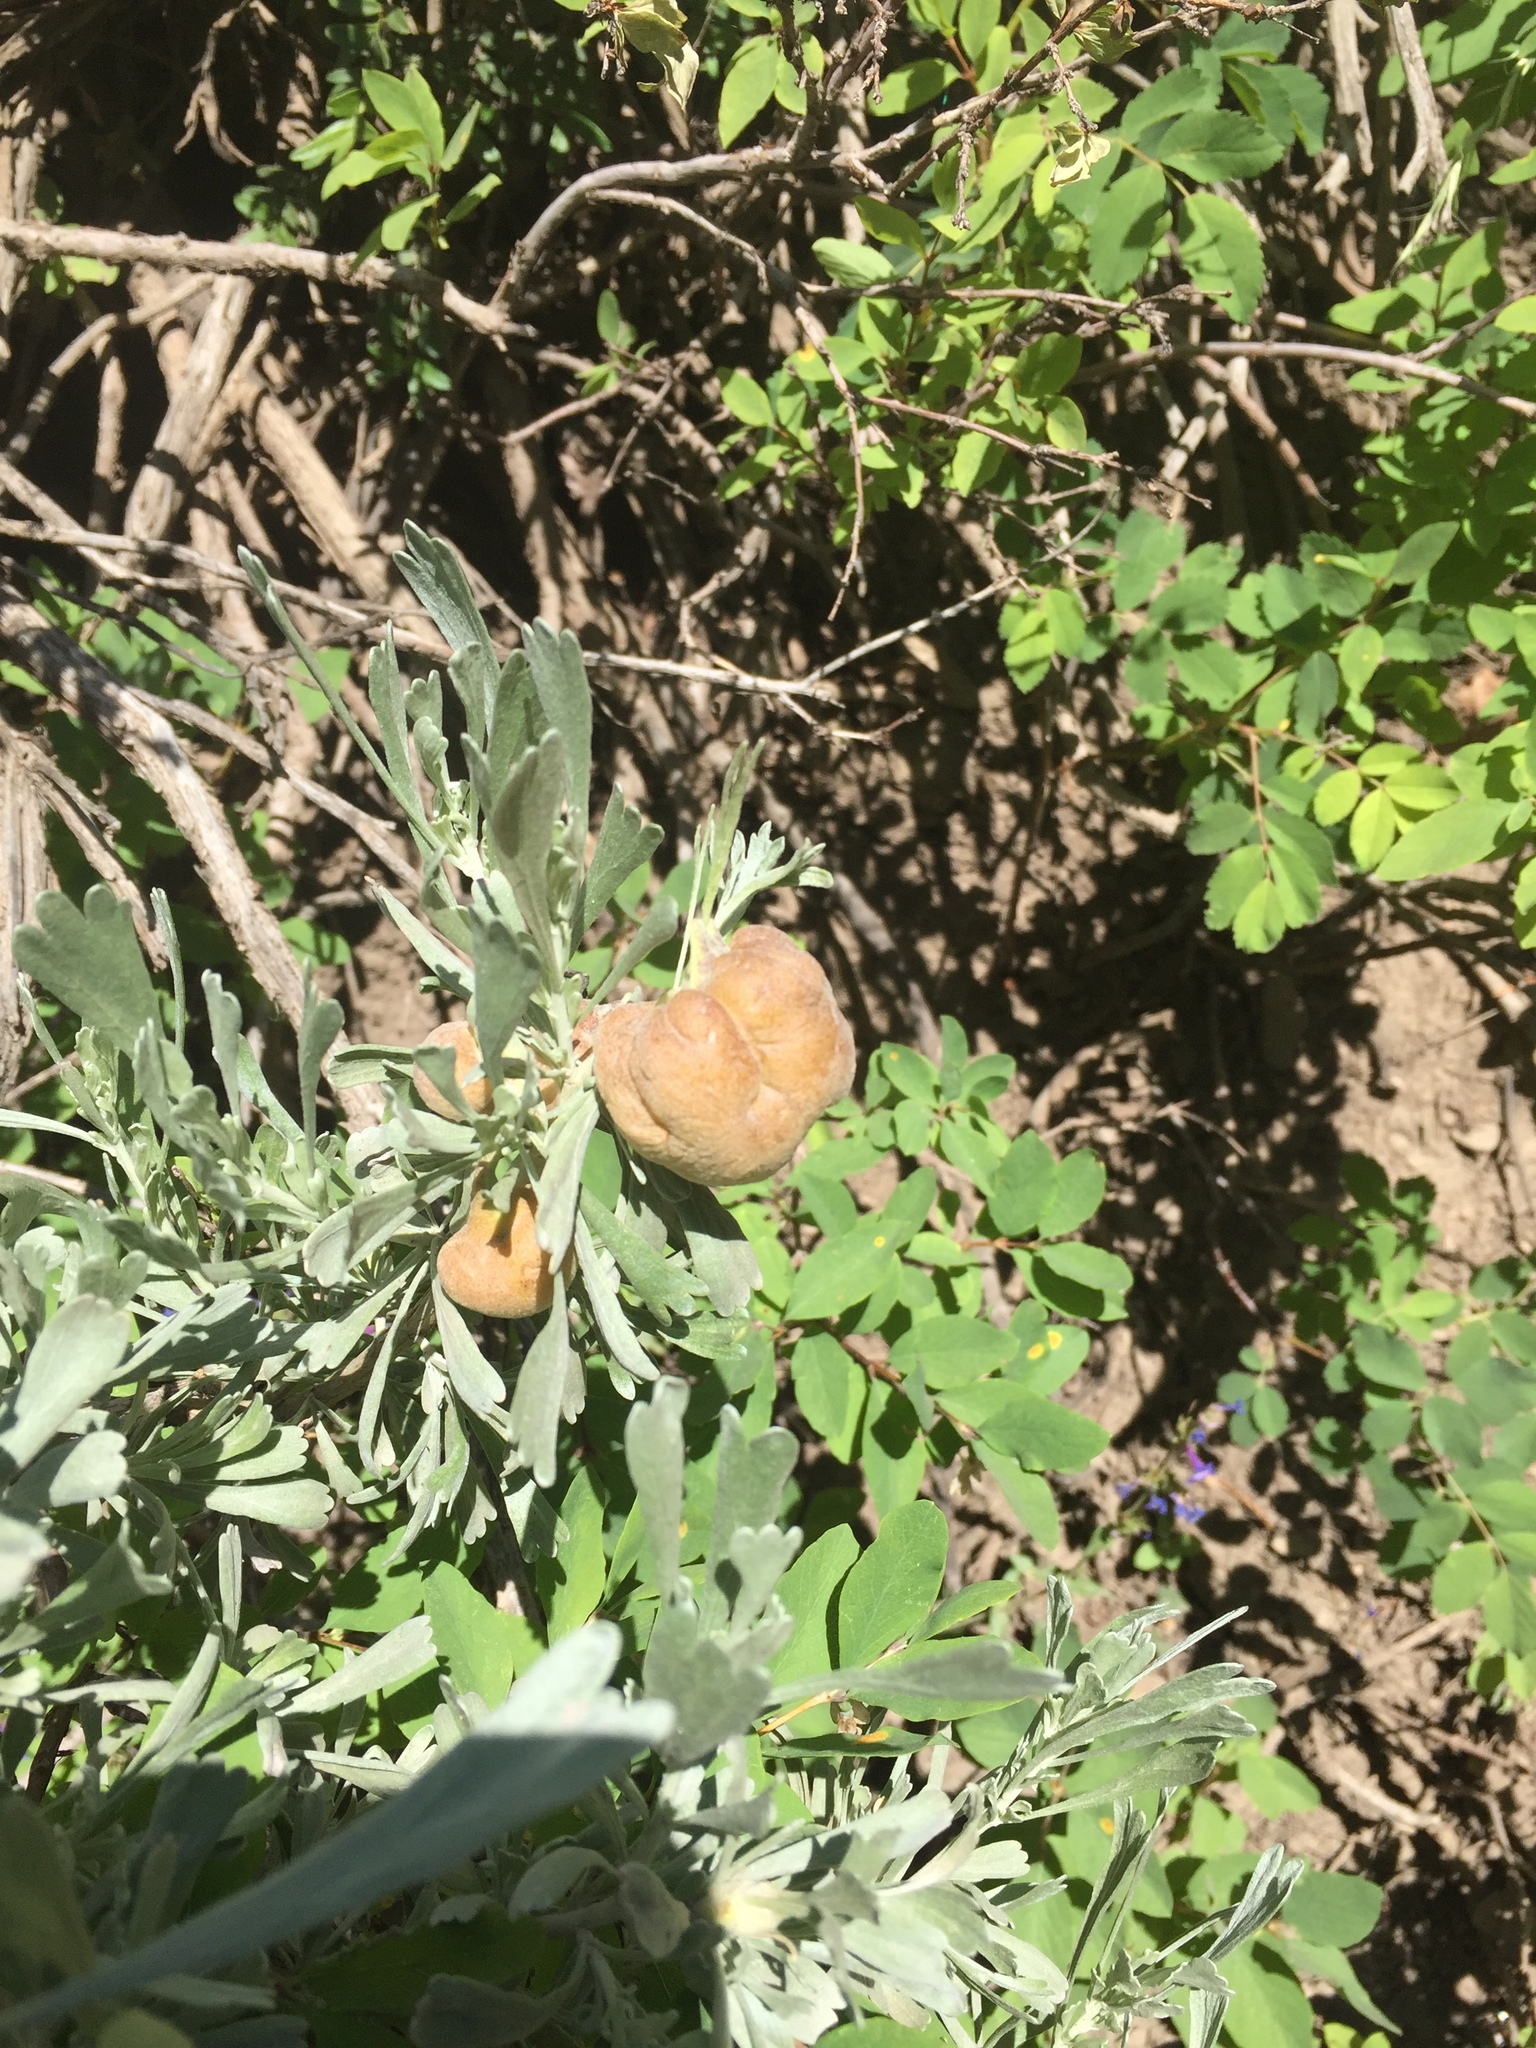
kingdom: Animalia
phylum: Arthropoda
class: Insecta
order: Diptera
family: Cecidomyiidae
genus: Rhopalomyia
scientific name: Rhopalomyia pomum
